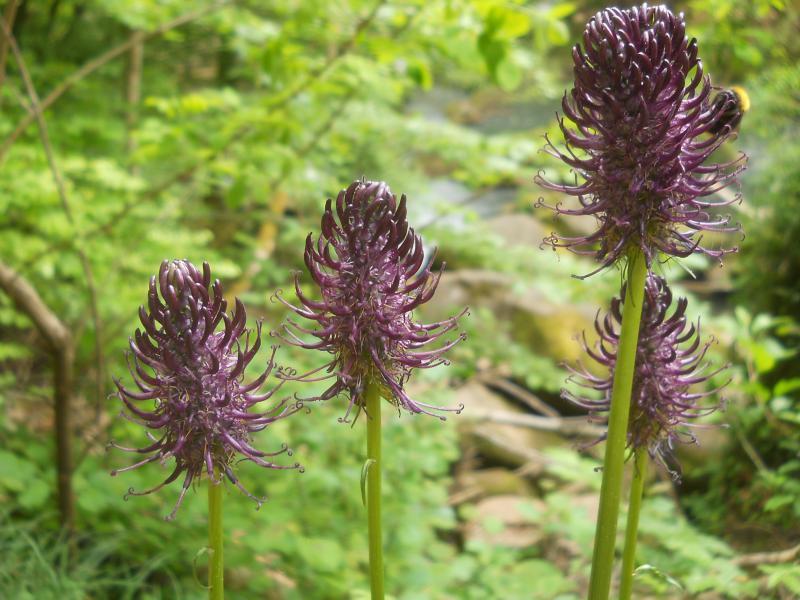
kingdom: Plantae
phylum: Tracheophyta
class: Magnoliopsida
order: Asterales
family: Campanulaceae
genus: Phyteuma
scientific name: Phyteuma nigrum
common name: Black rampion
